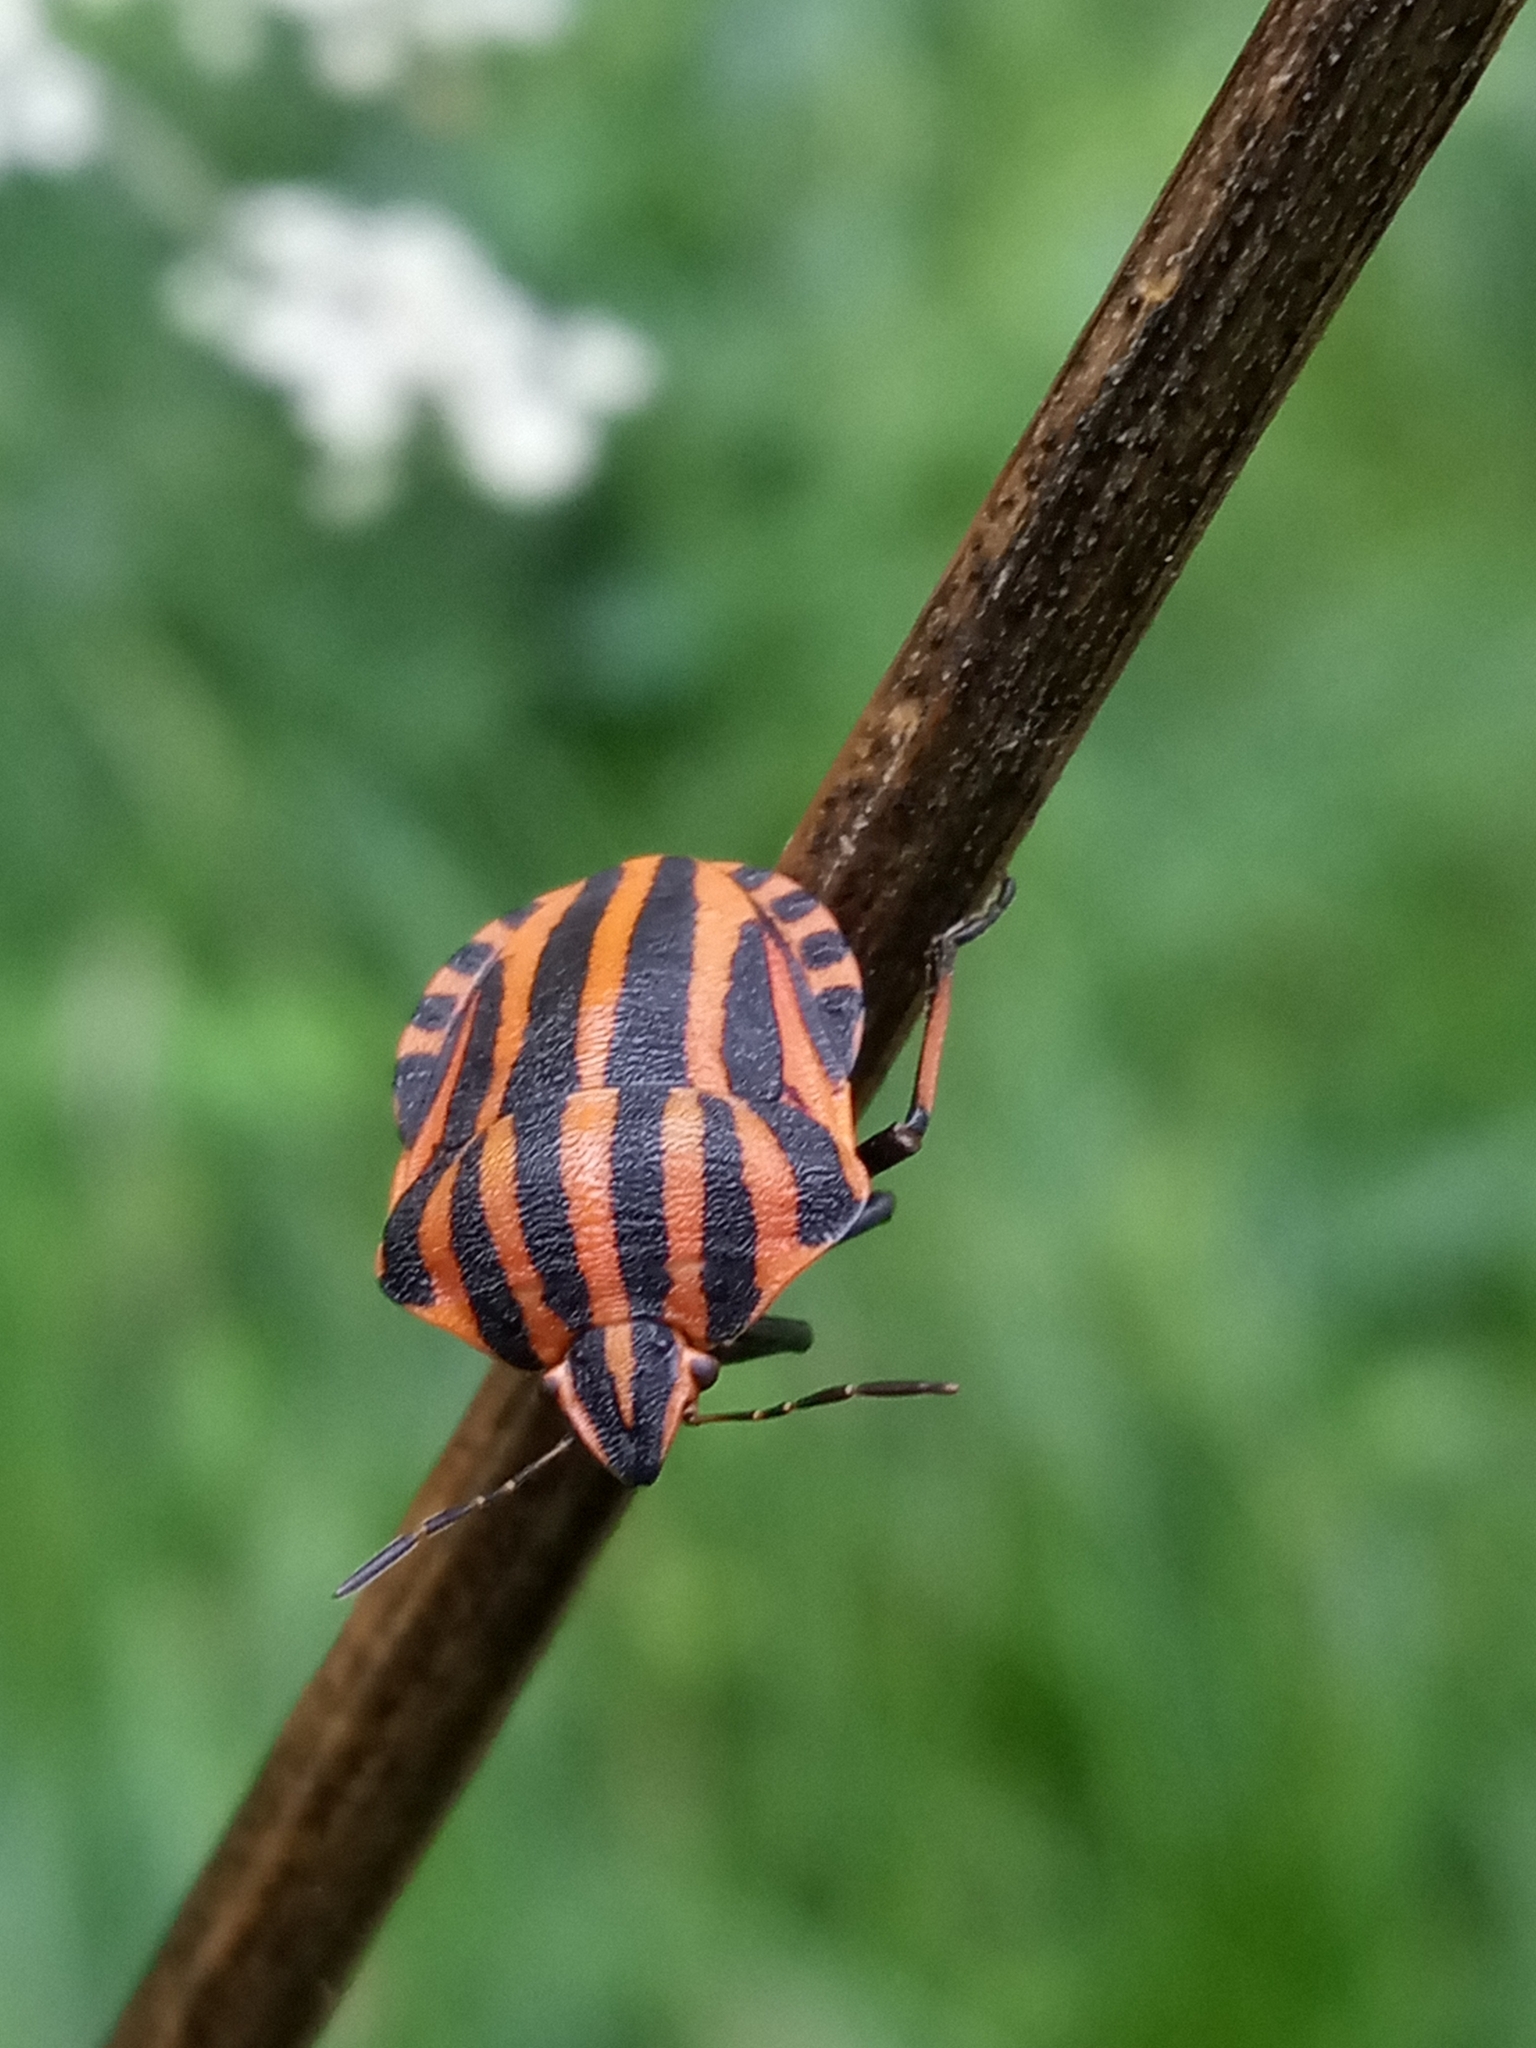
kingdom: Animalia
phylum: Arthropoda
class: Insecta
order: Hemiptera
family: Pentatomidae
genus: Graphosoma
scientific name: Graphosoma italicum
